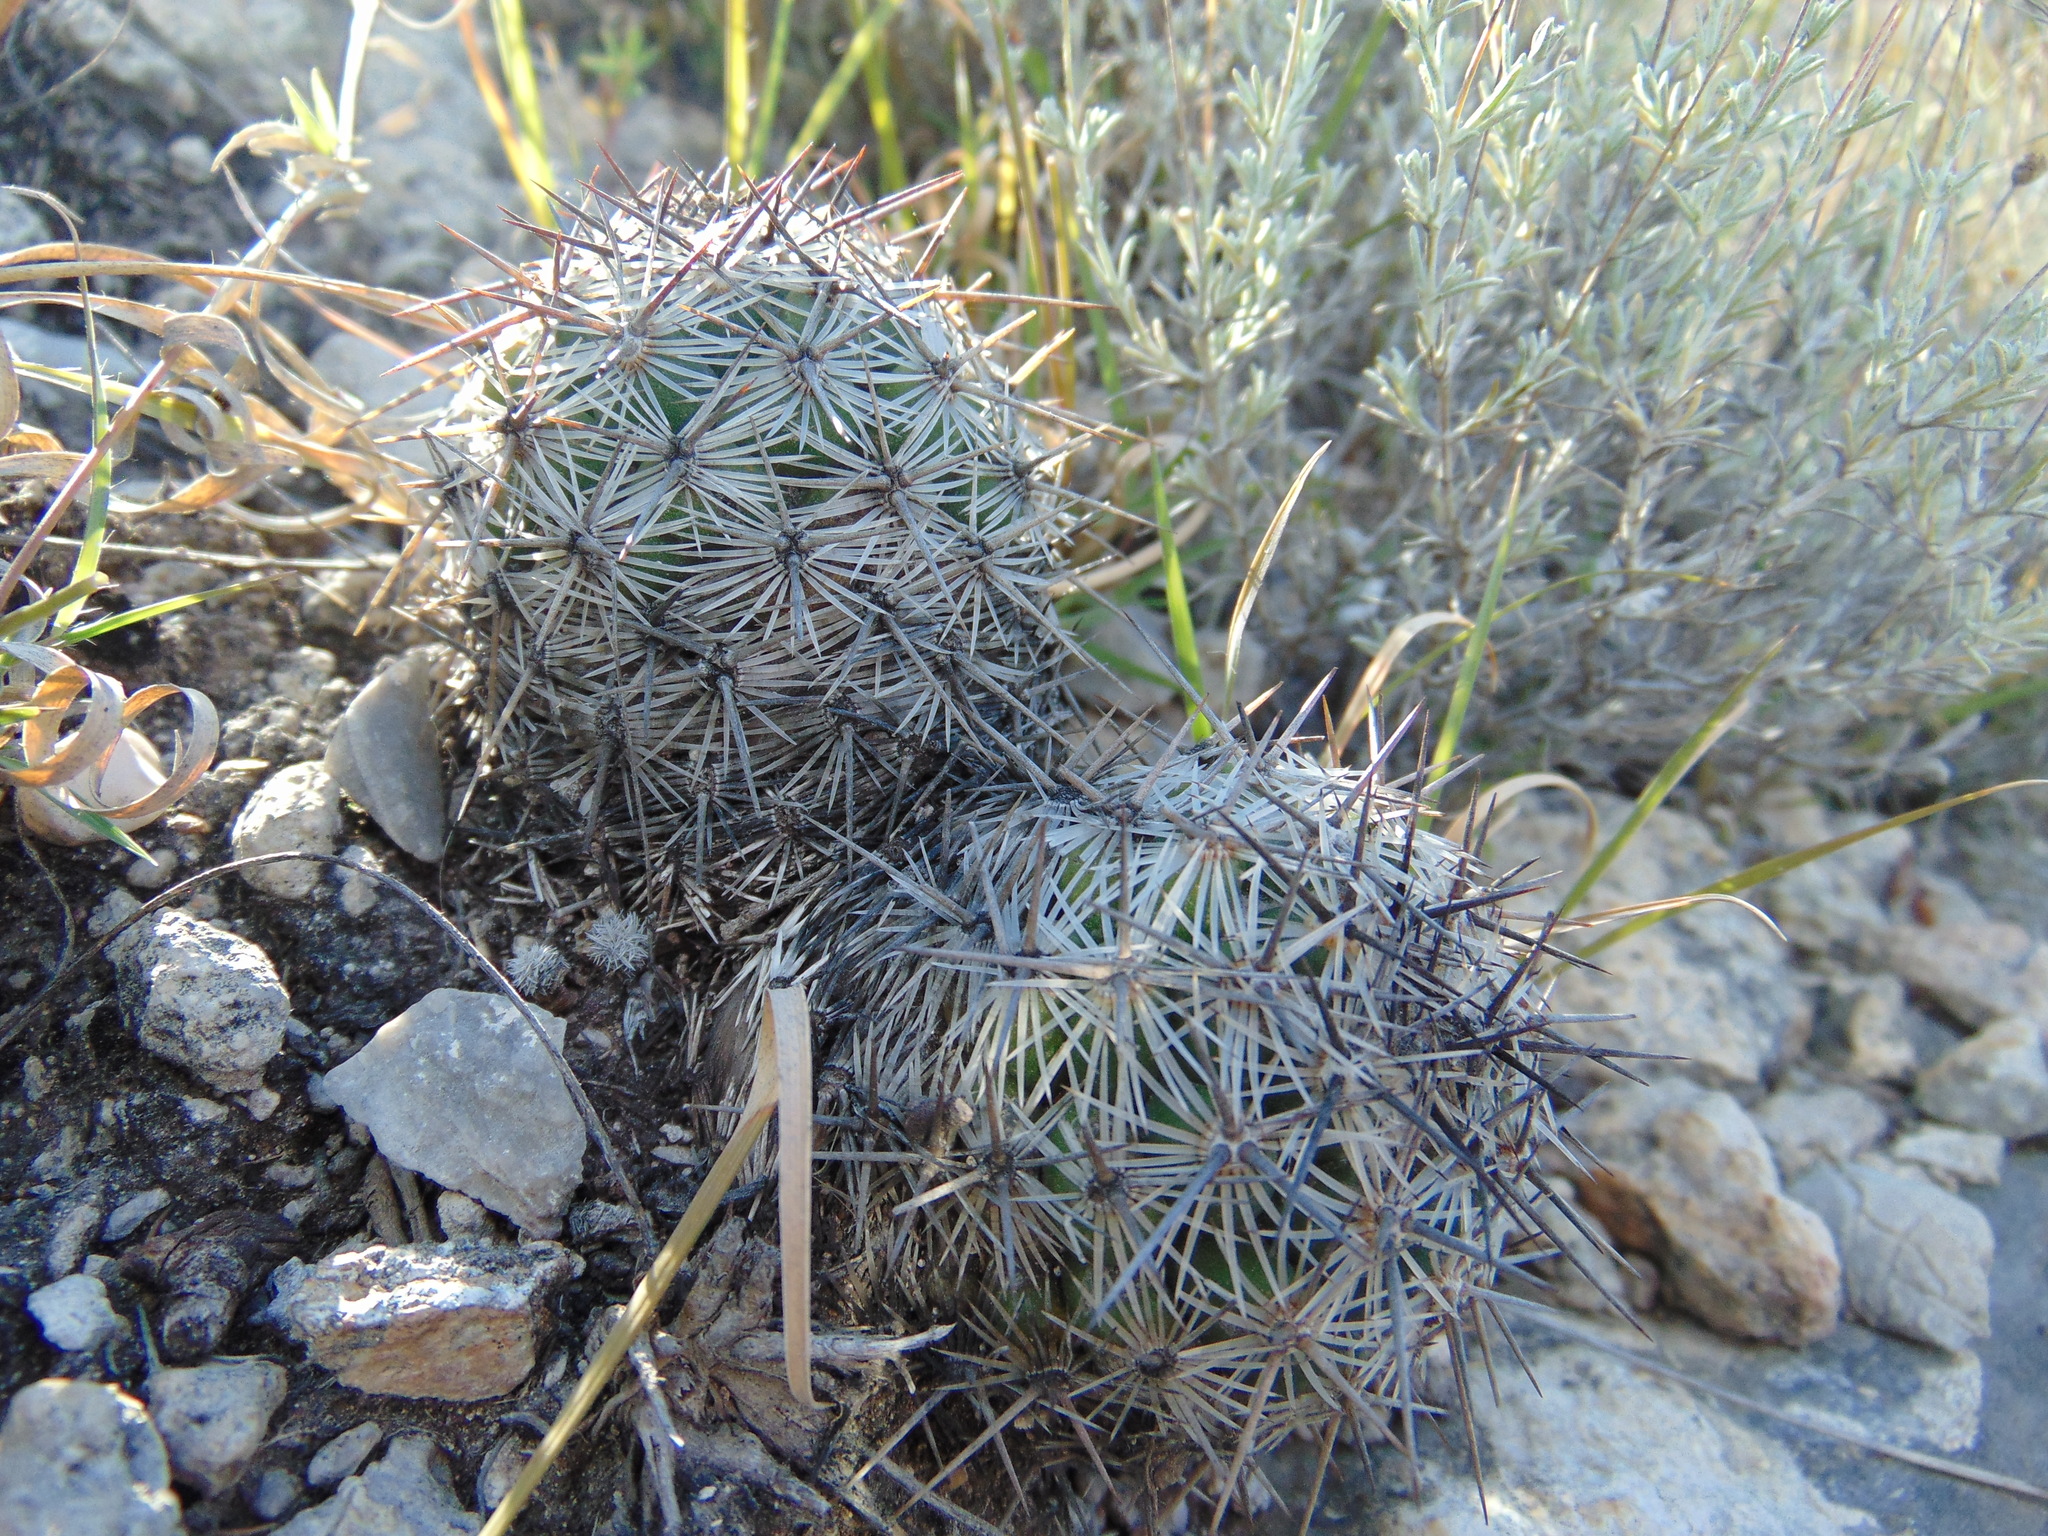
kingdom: Plantae
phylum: Tracheophyta
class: Magnoliopsida
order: Caryophyllales
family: Cactaceae
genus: Cochemiea
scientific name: Cochemiea conoidea
